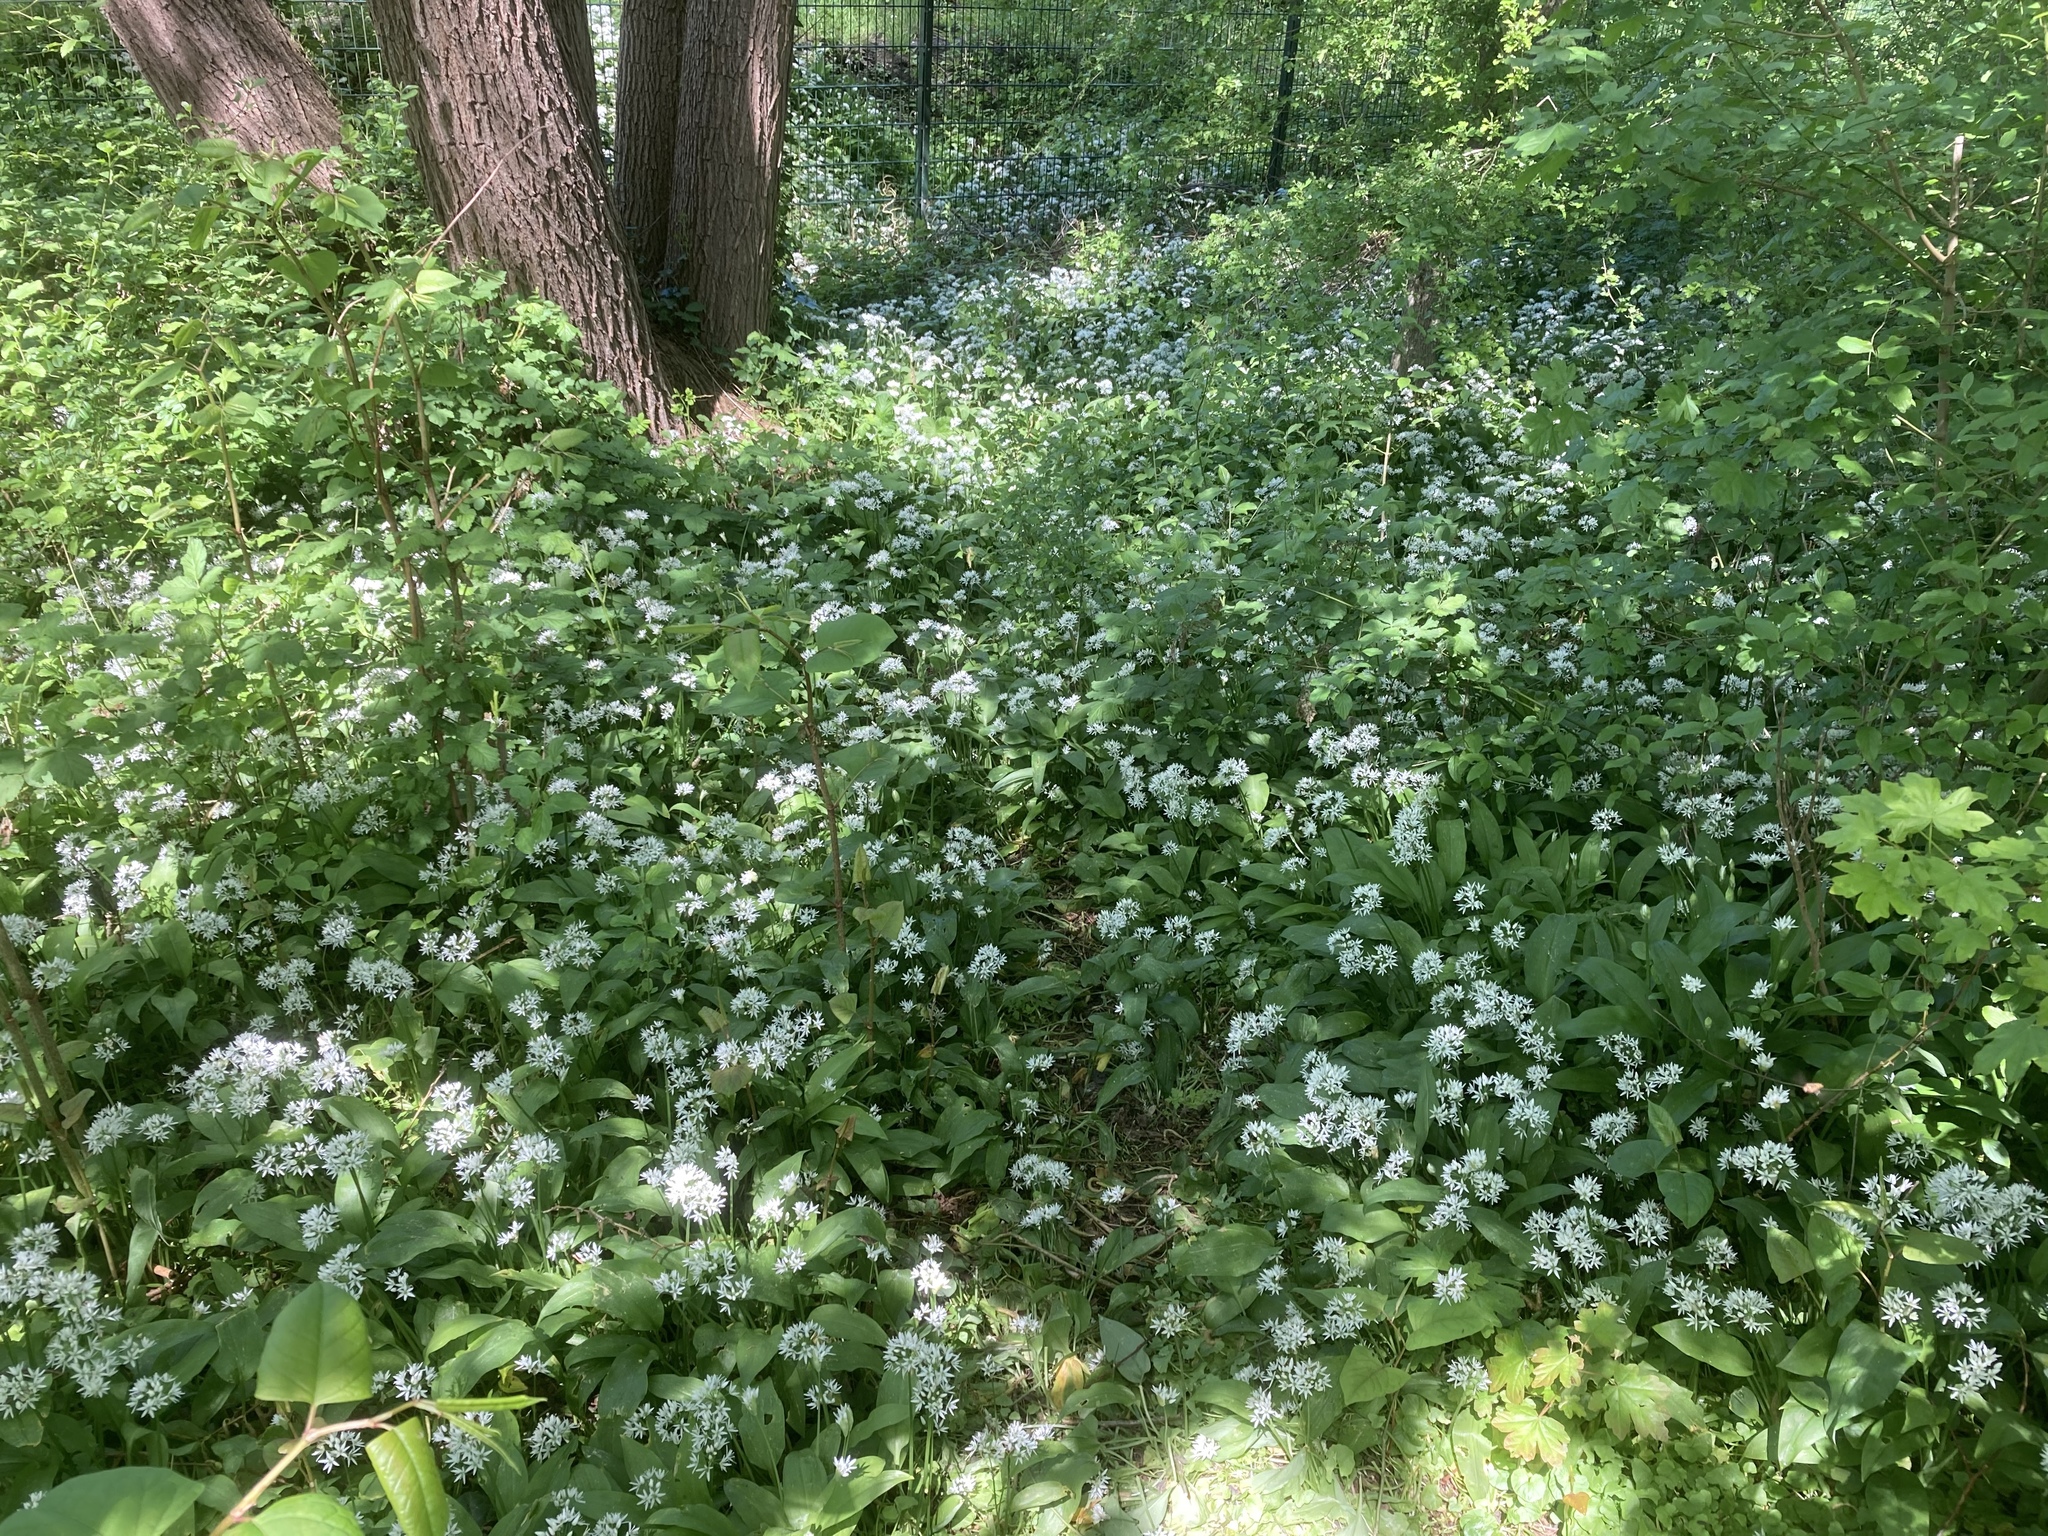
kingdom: Plantae
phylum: Tracheophyta
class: Liliopsida
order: Asparagales
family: Amaryllidaceae
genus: Allium
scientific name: Allium ursinum
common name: Ramsons
